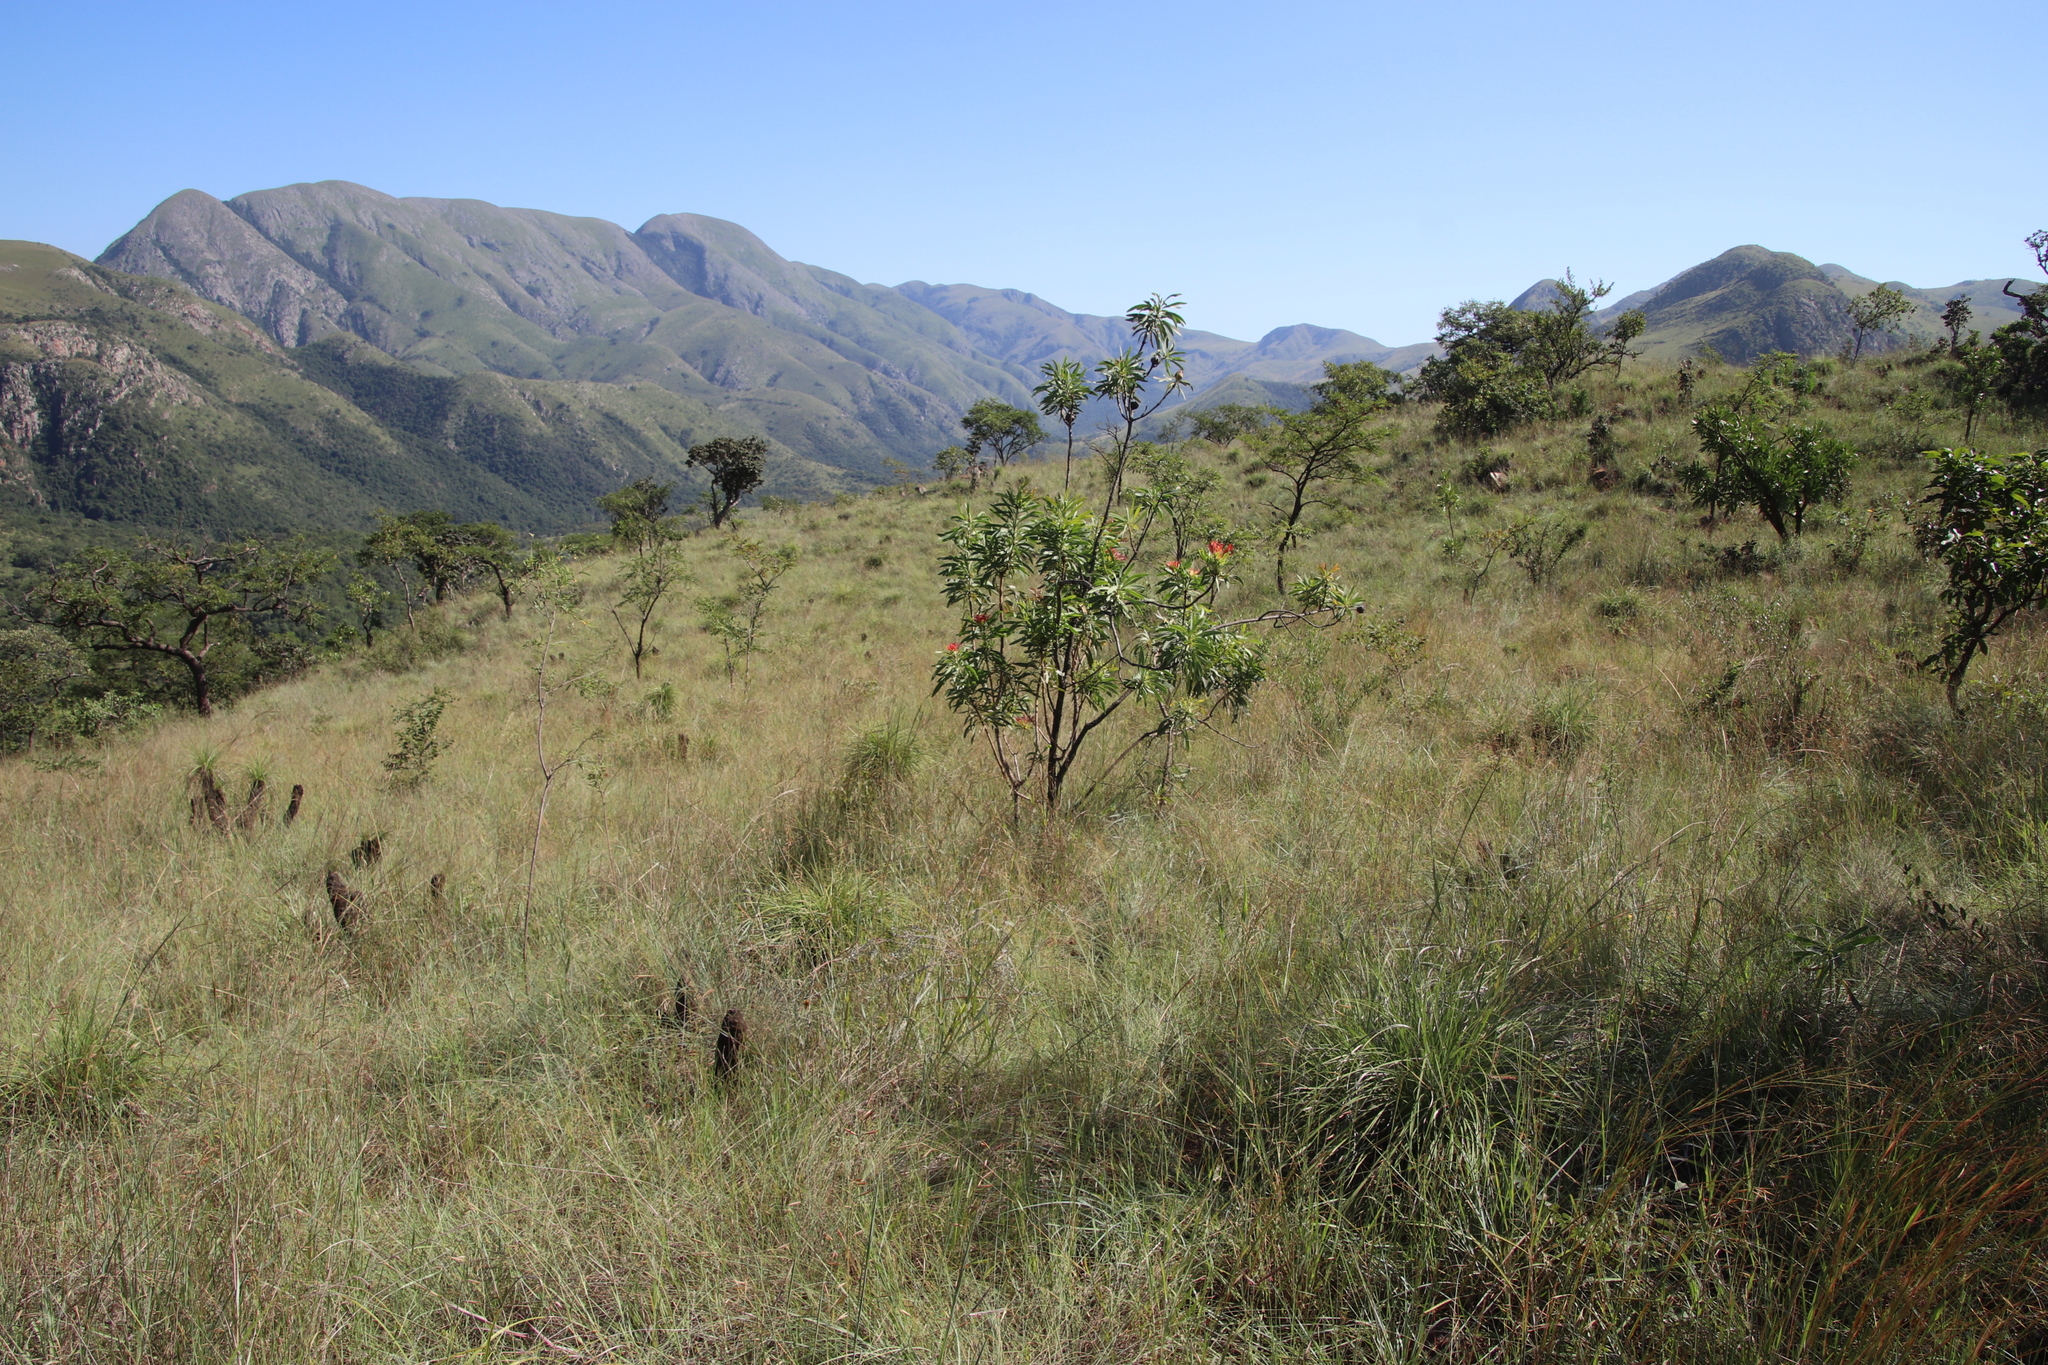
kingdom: Plantae
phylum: Tracheophyta
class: Magnoliopsida
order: Proteales
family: Proteaceae
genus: Protea
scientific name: Protea caffra
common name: Common sugarbush
